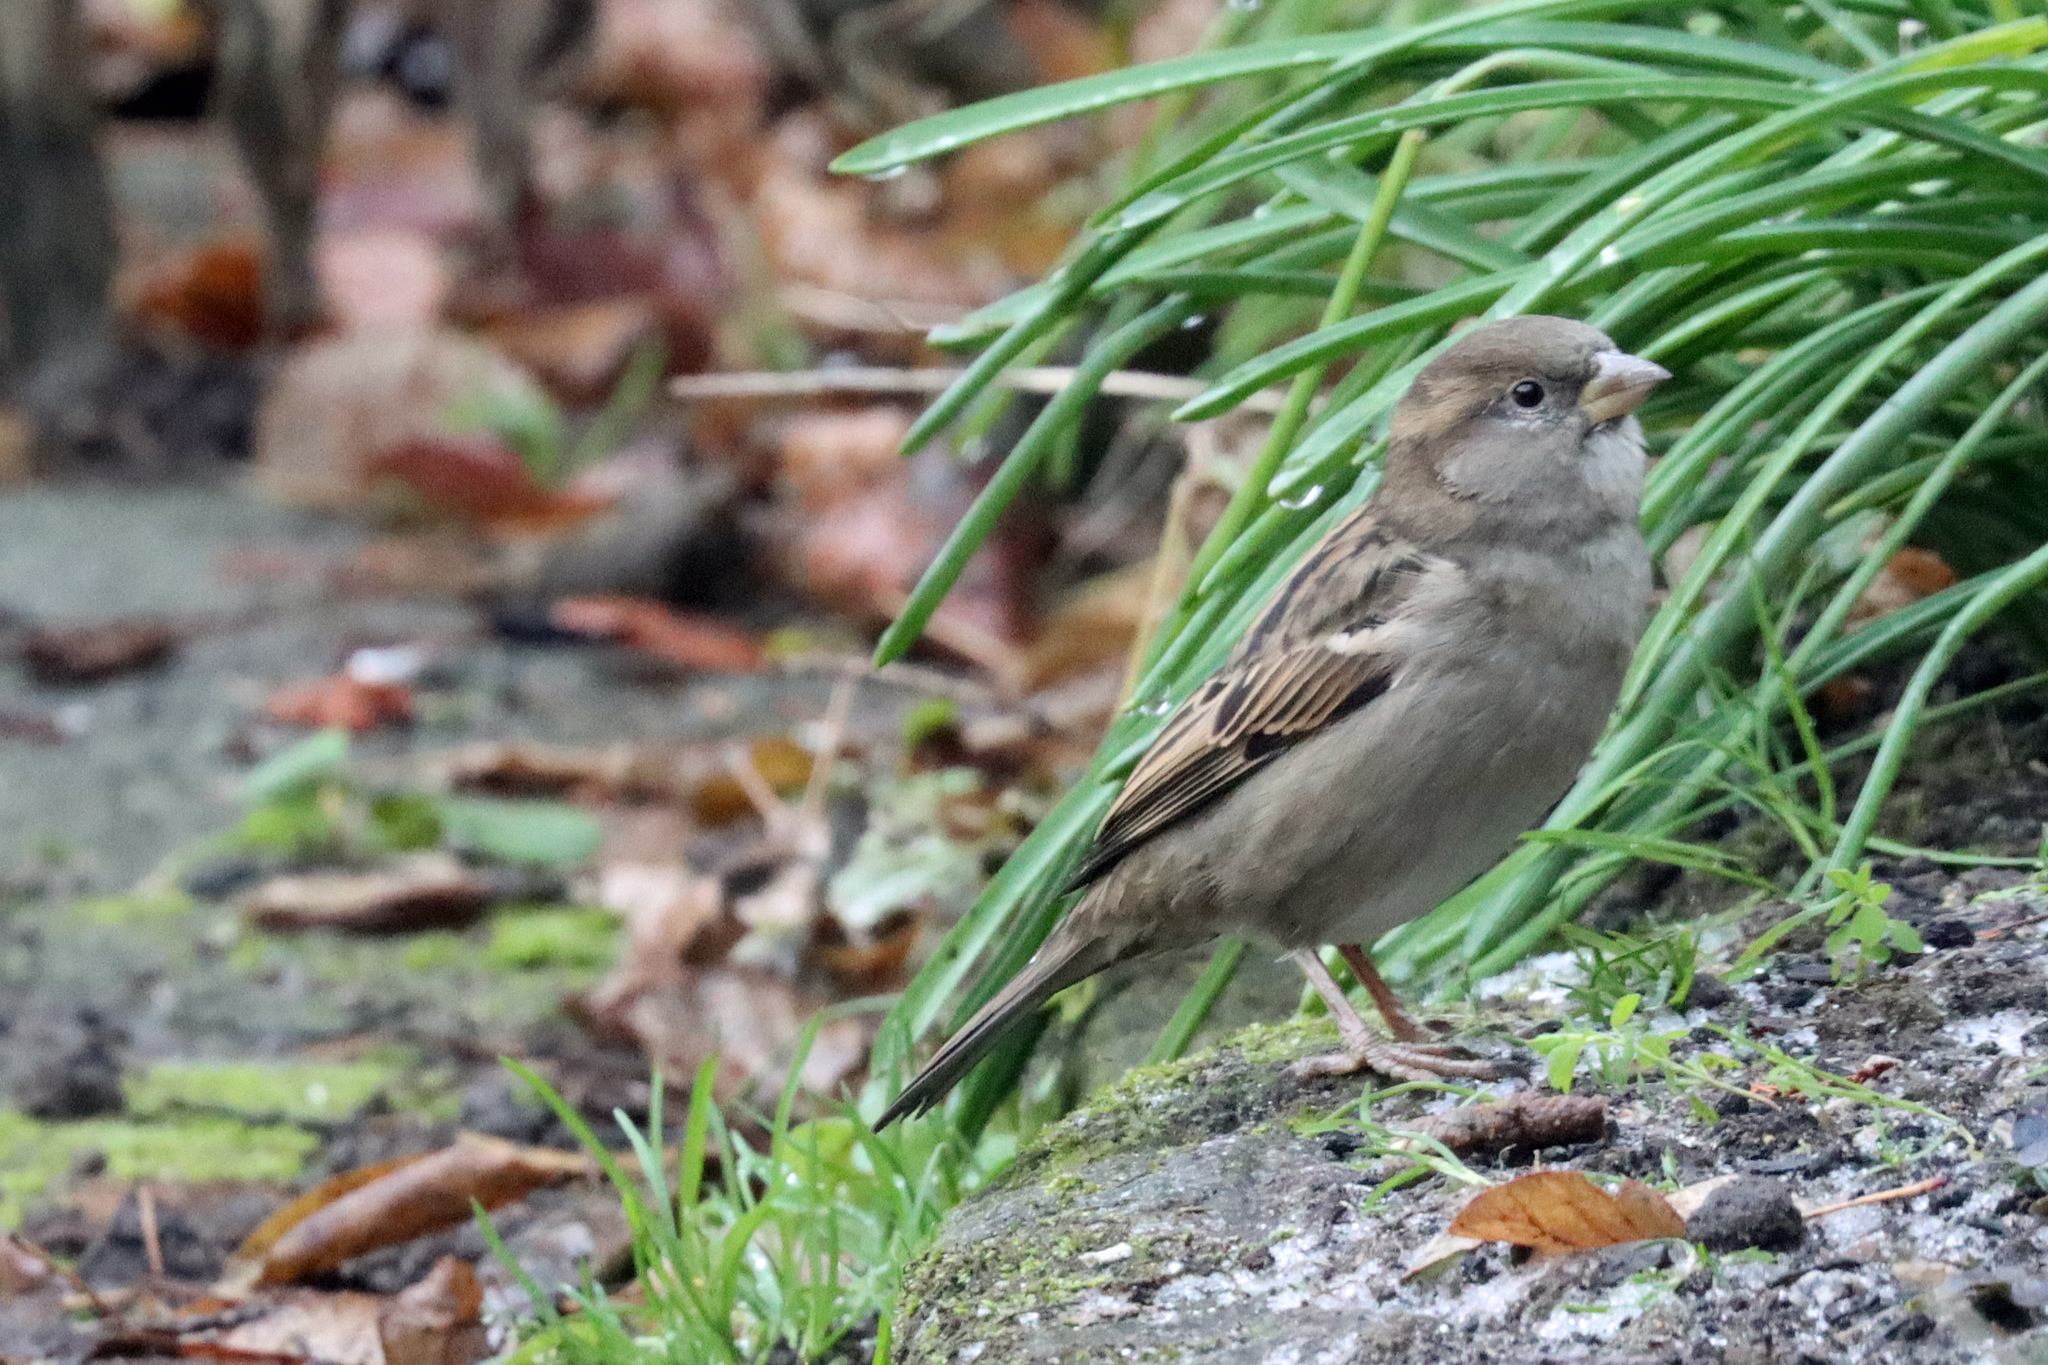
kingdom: Animalia
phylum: Chordata
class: Aves
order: Passeriformes
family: Passeridae
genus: Passer
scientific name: Passer domesticus
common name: House sparrow
